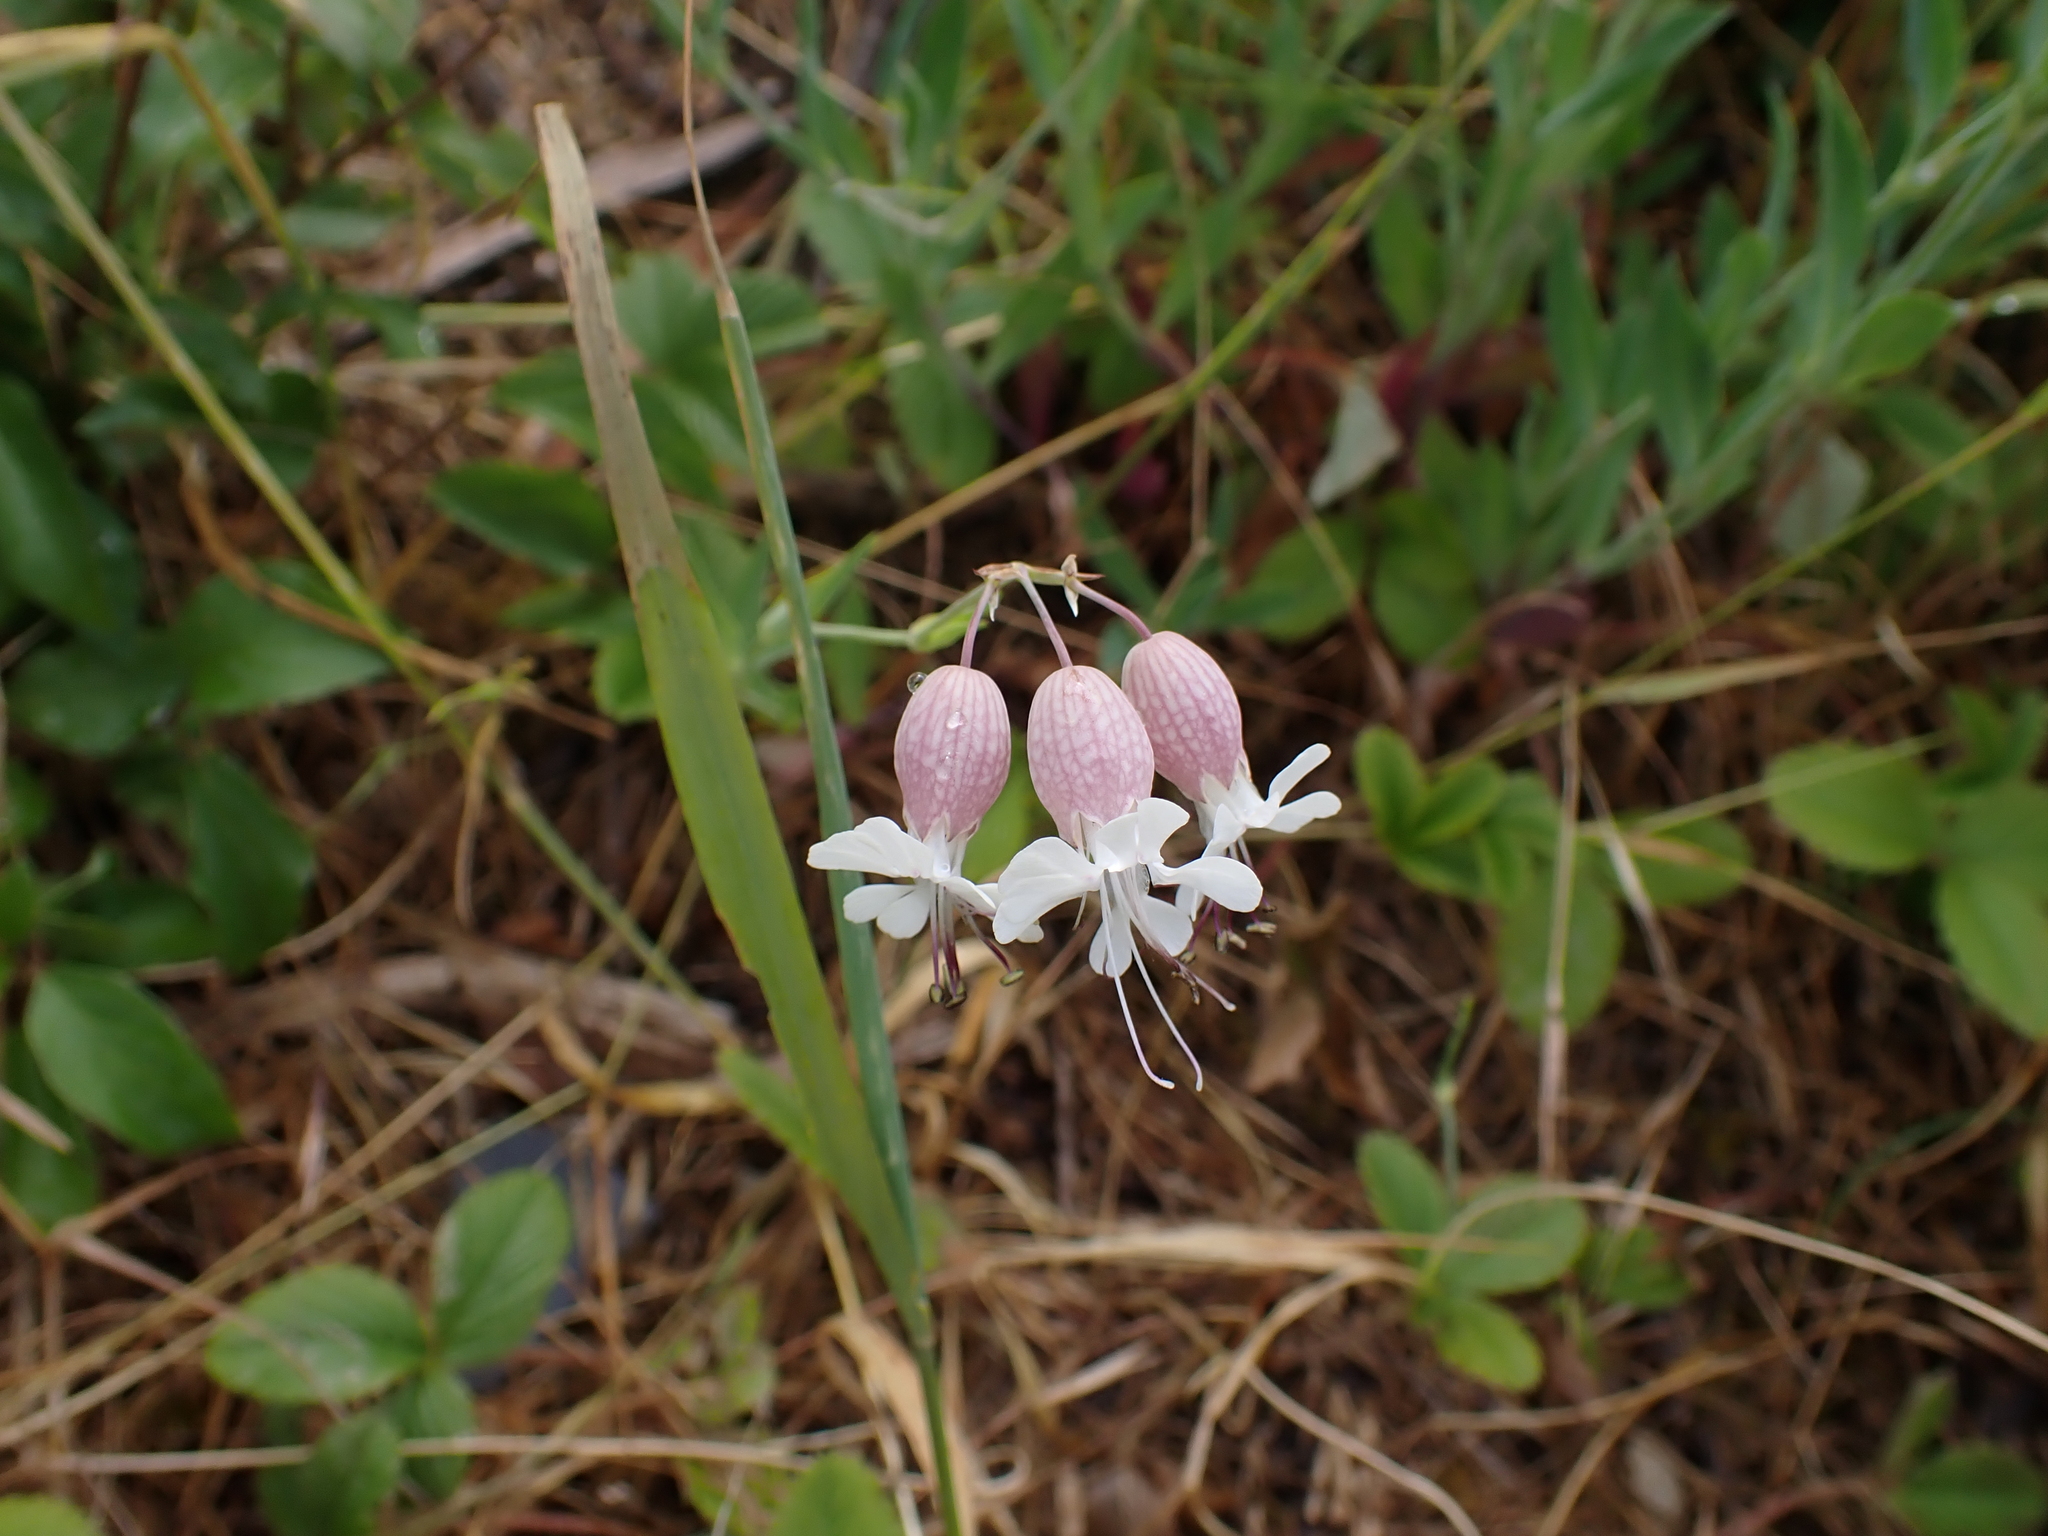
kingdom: Plantae
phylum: Tracheophyta
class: Magnoliopsida
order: Caryophyllales
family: Caryophyllaceae
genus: Silene
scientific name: Silene vulgaris
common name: Bladder campion
